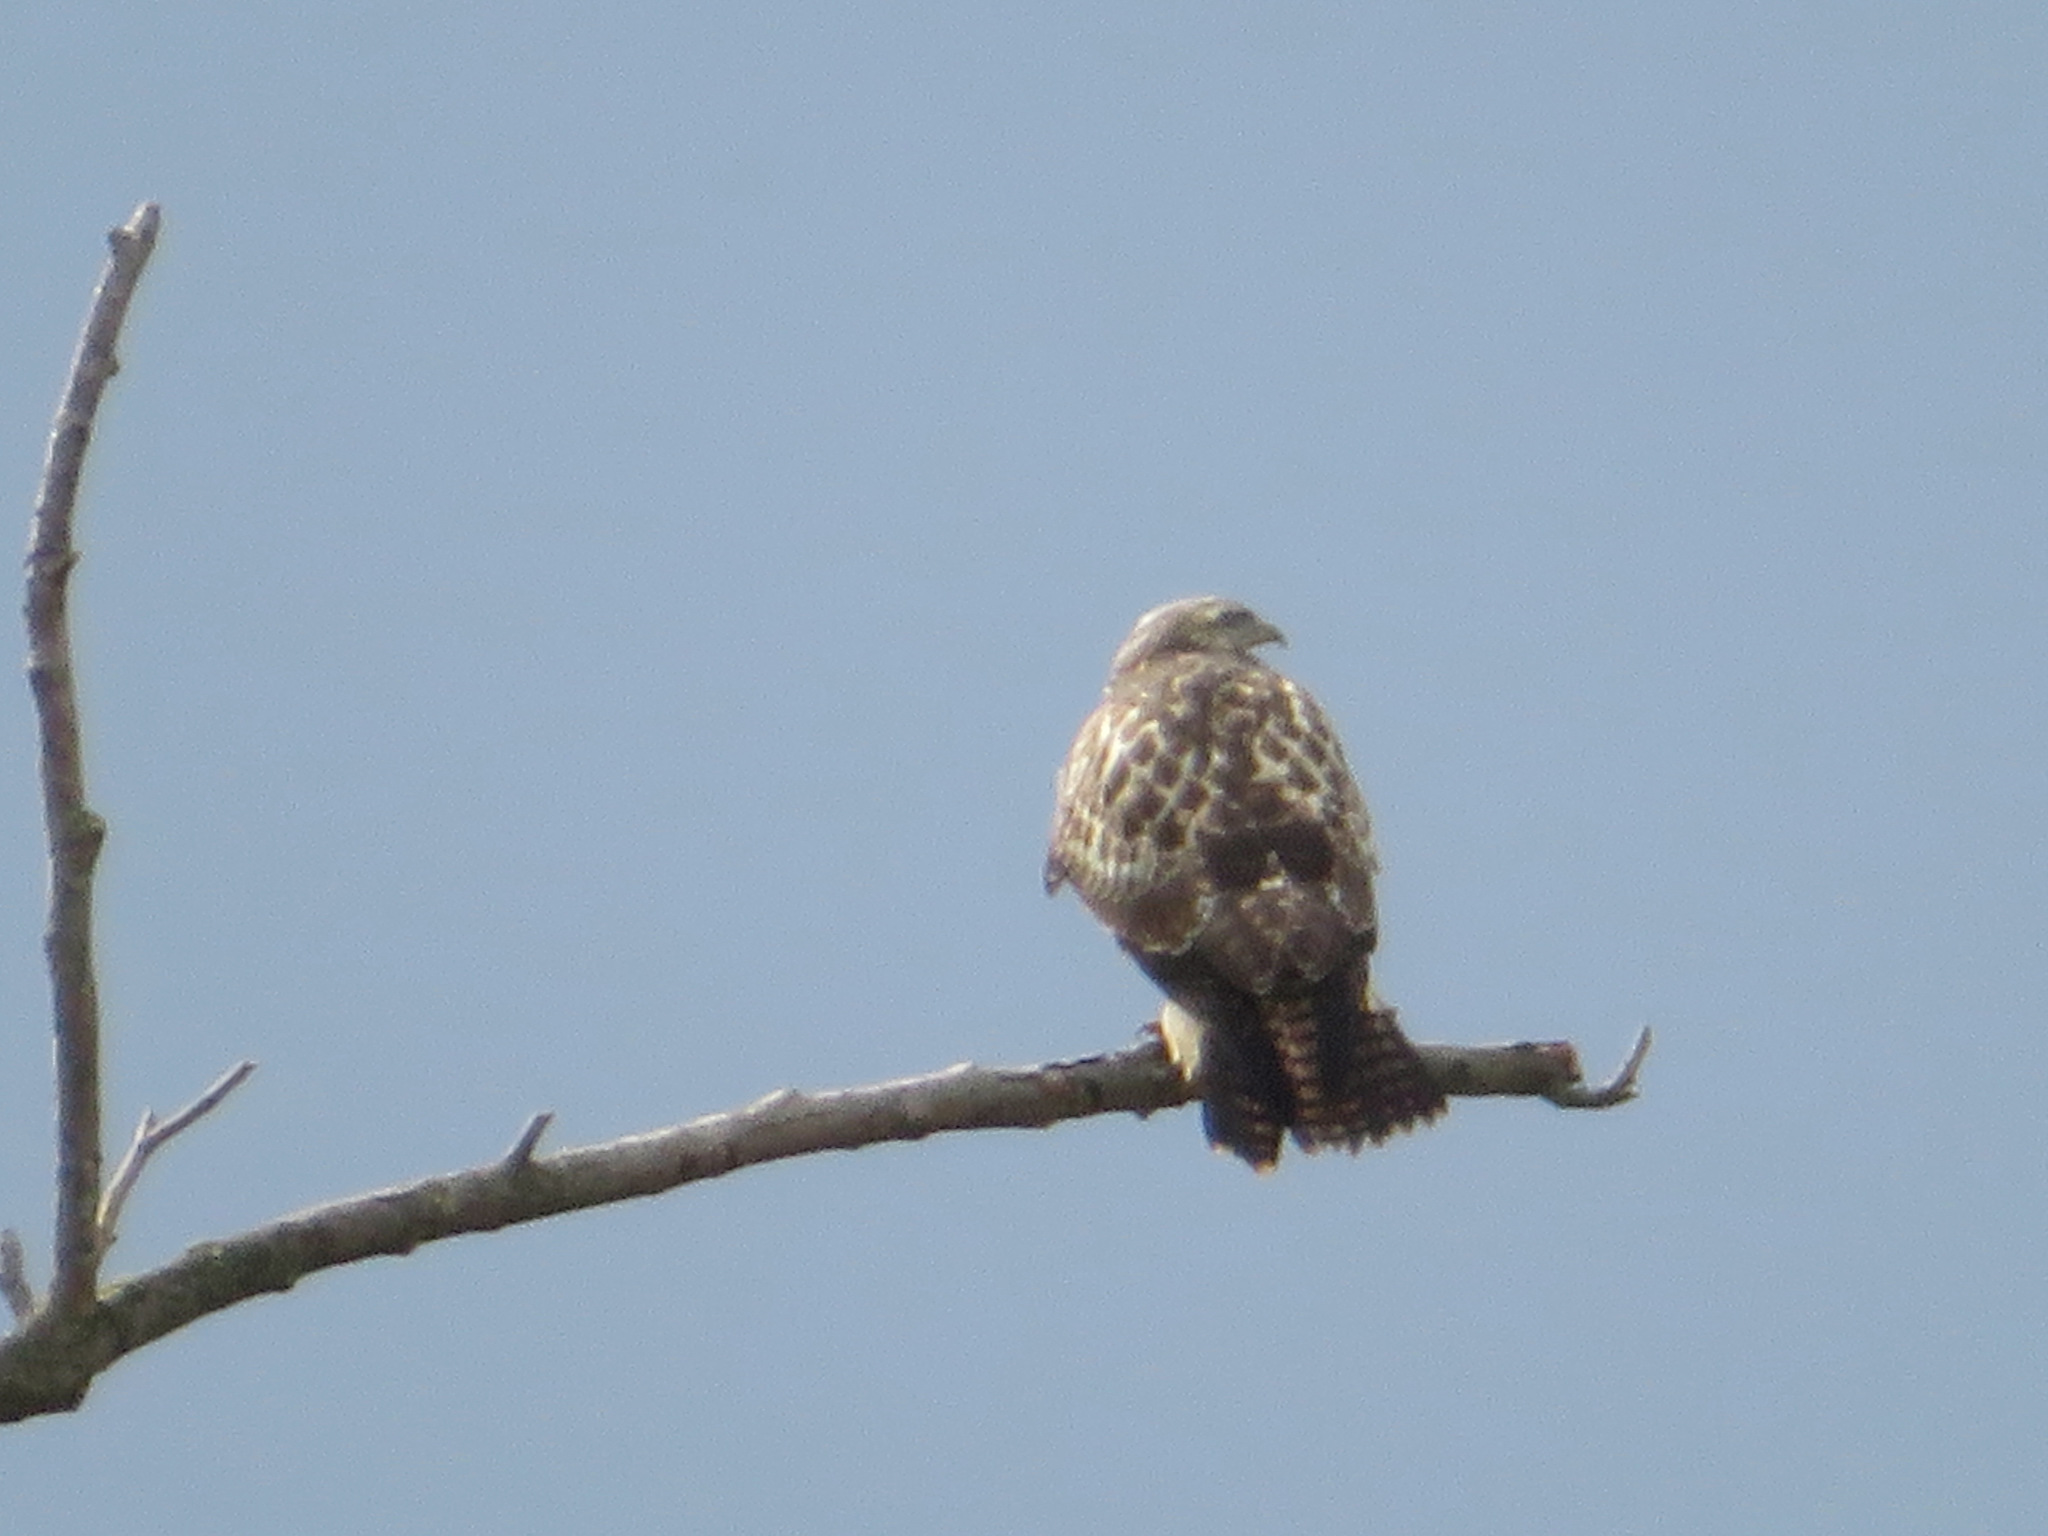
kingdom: Animalia
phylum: Chordata
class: Aves
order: Accipitriformes
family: Accipitridae
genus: Buteo
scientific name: Buteo buteo
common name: Common buzzard
